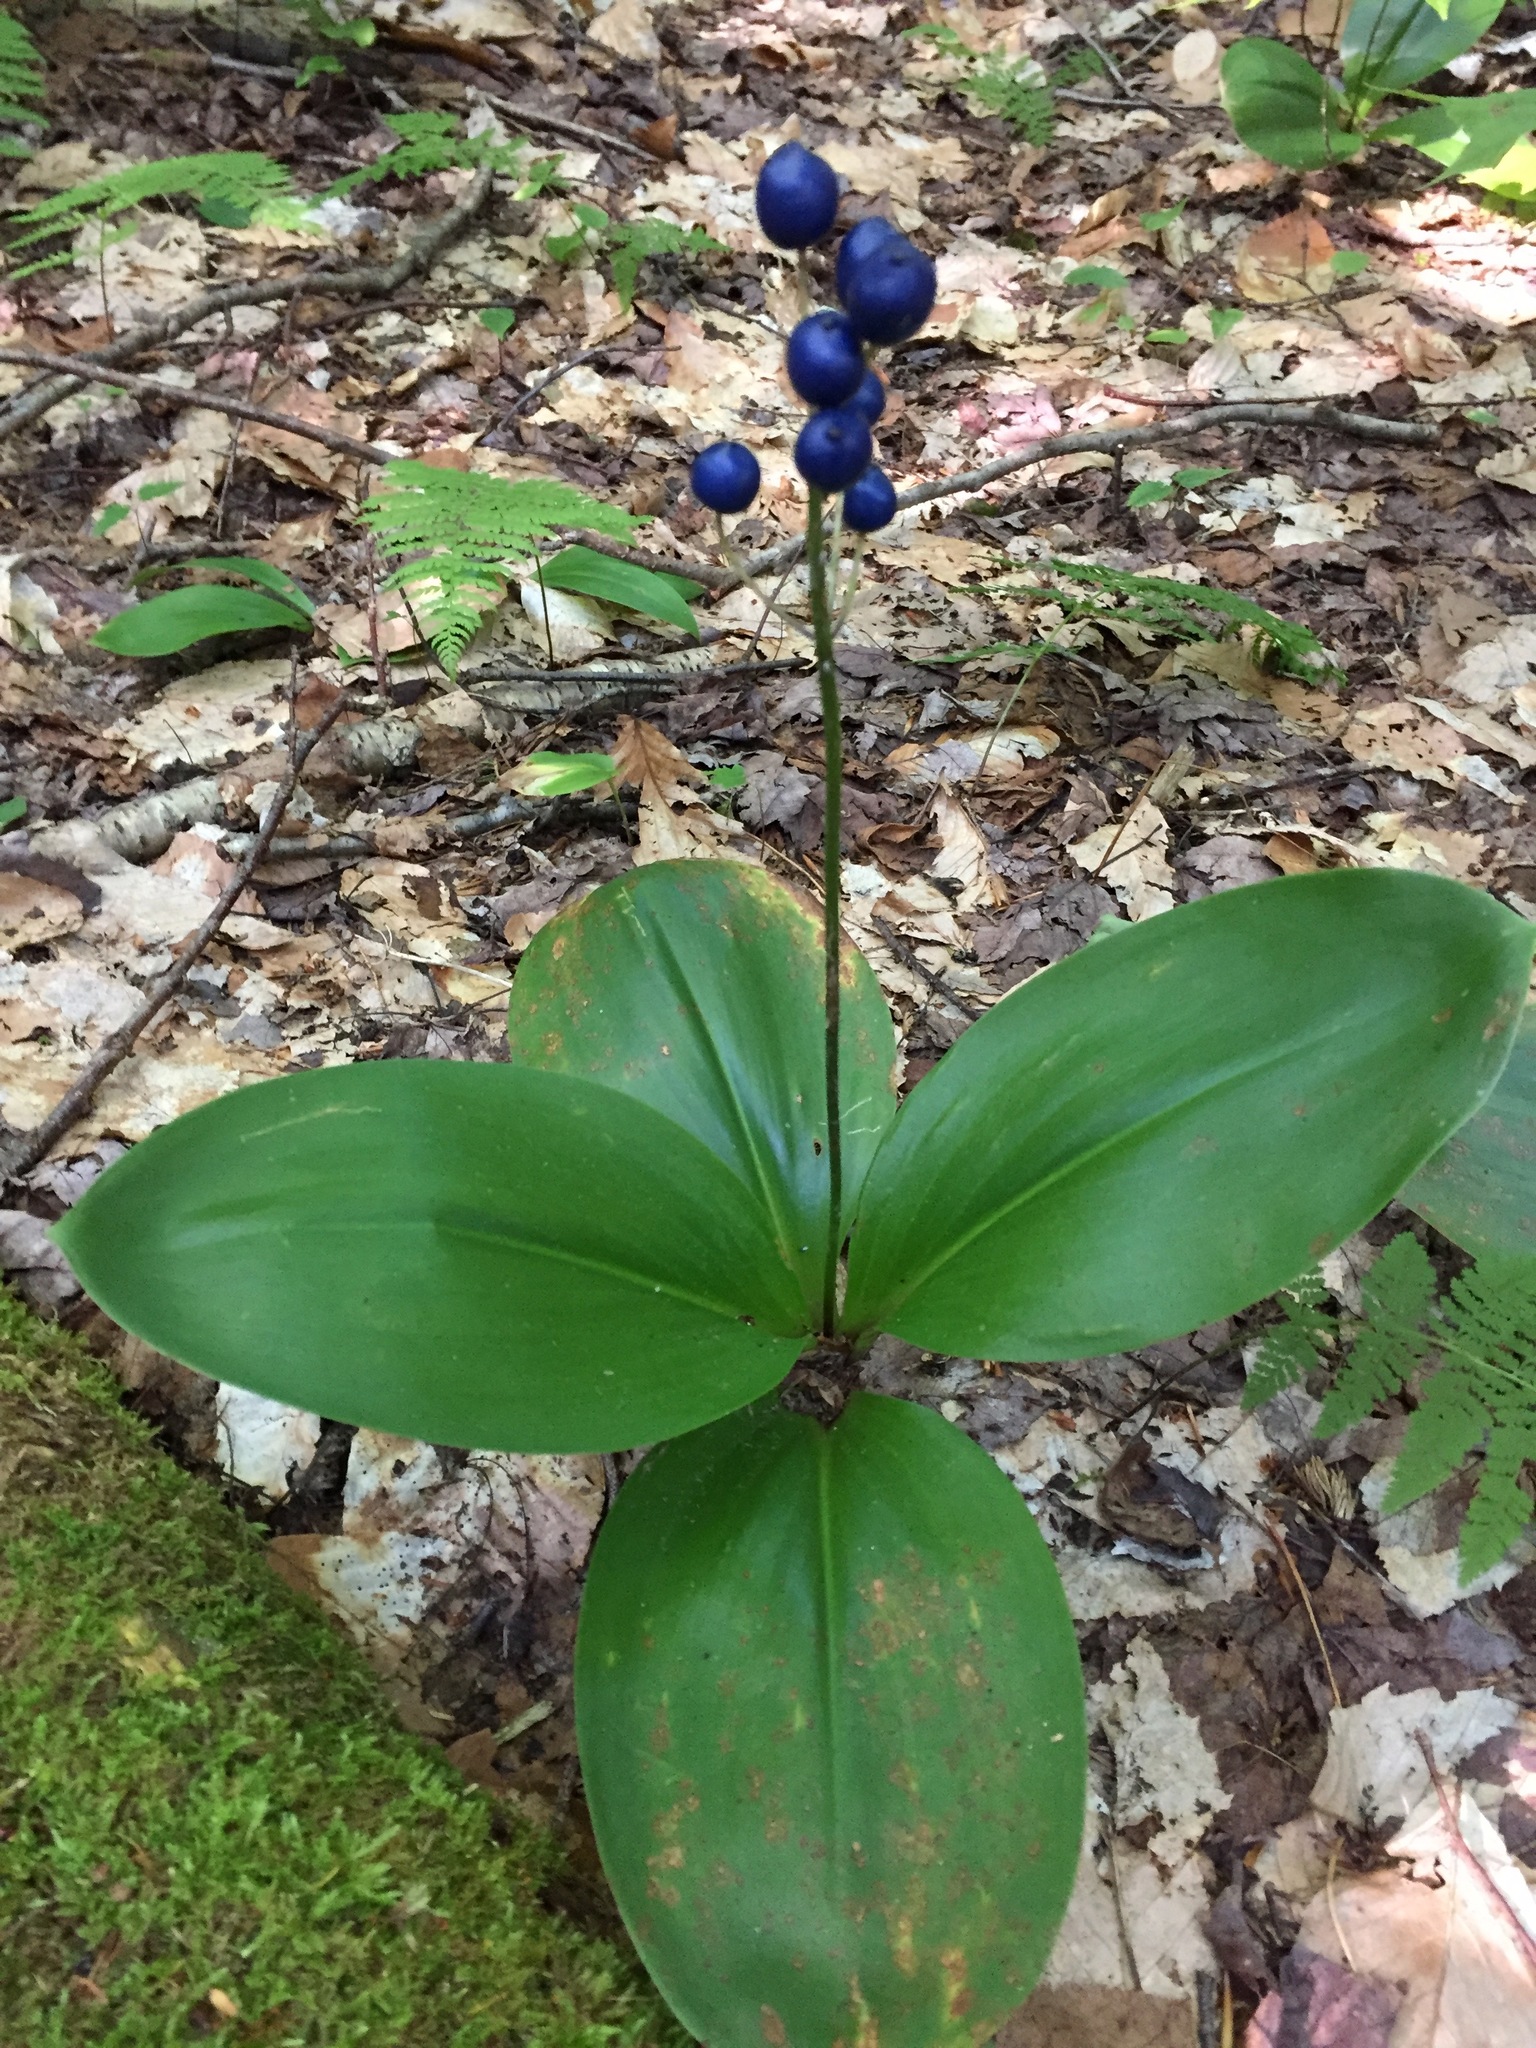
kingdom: Plantae
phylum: Tracheophyta
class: Liliopsida
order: Liliales
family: Liliaceae
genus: Clintonia
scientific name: Clintonia borealis
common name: Yellow clintonia
